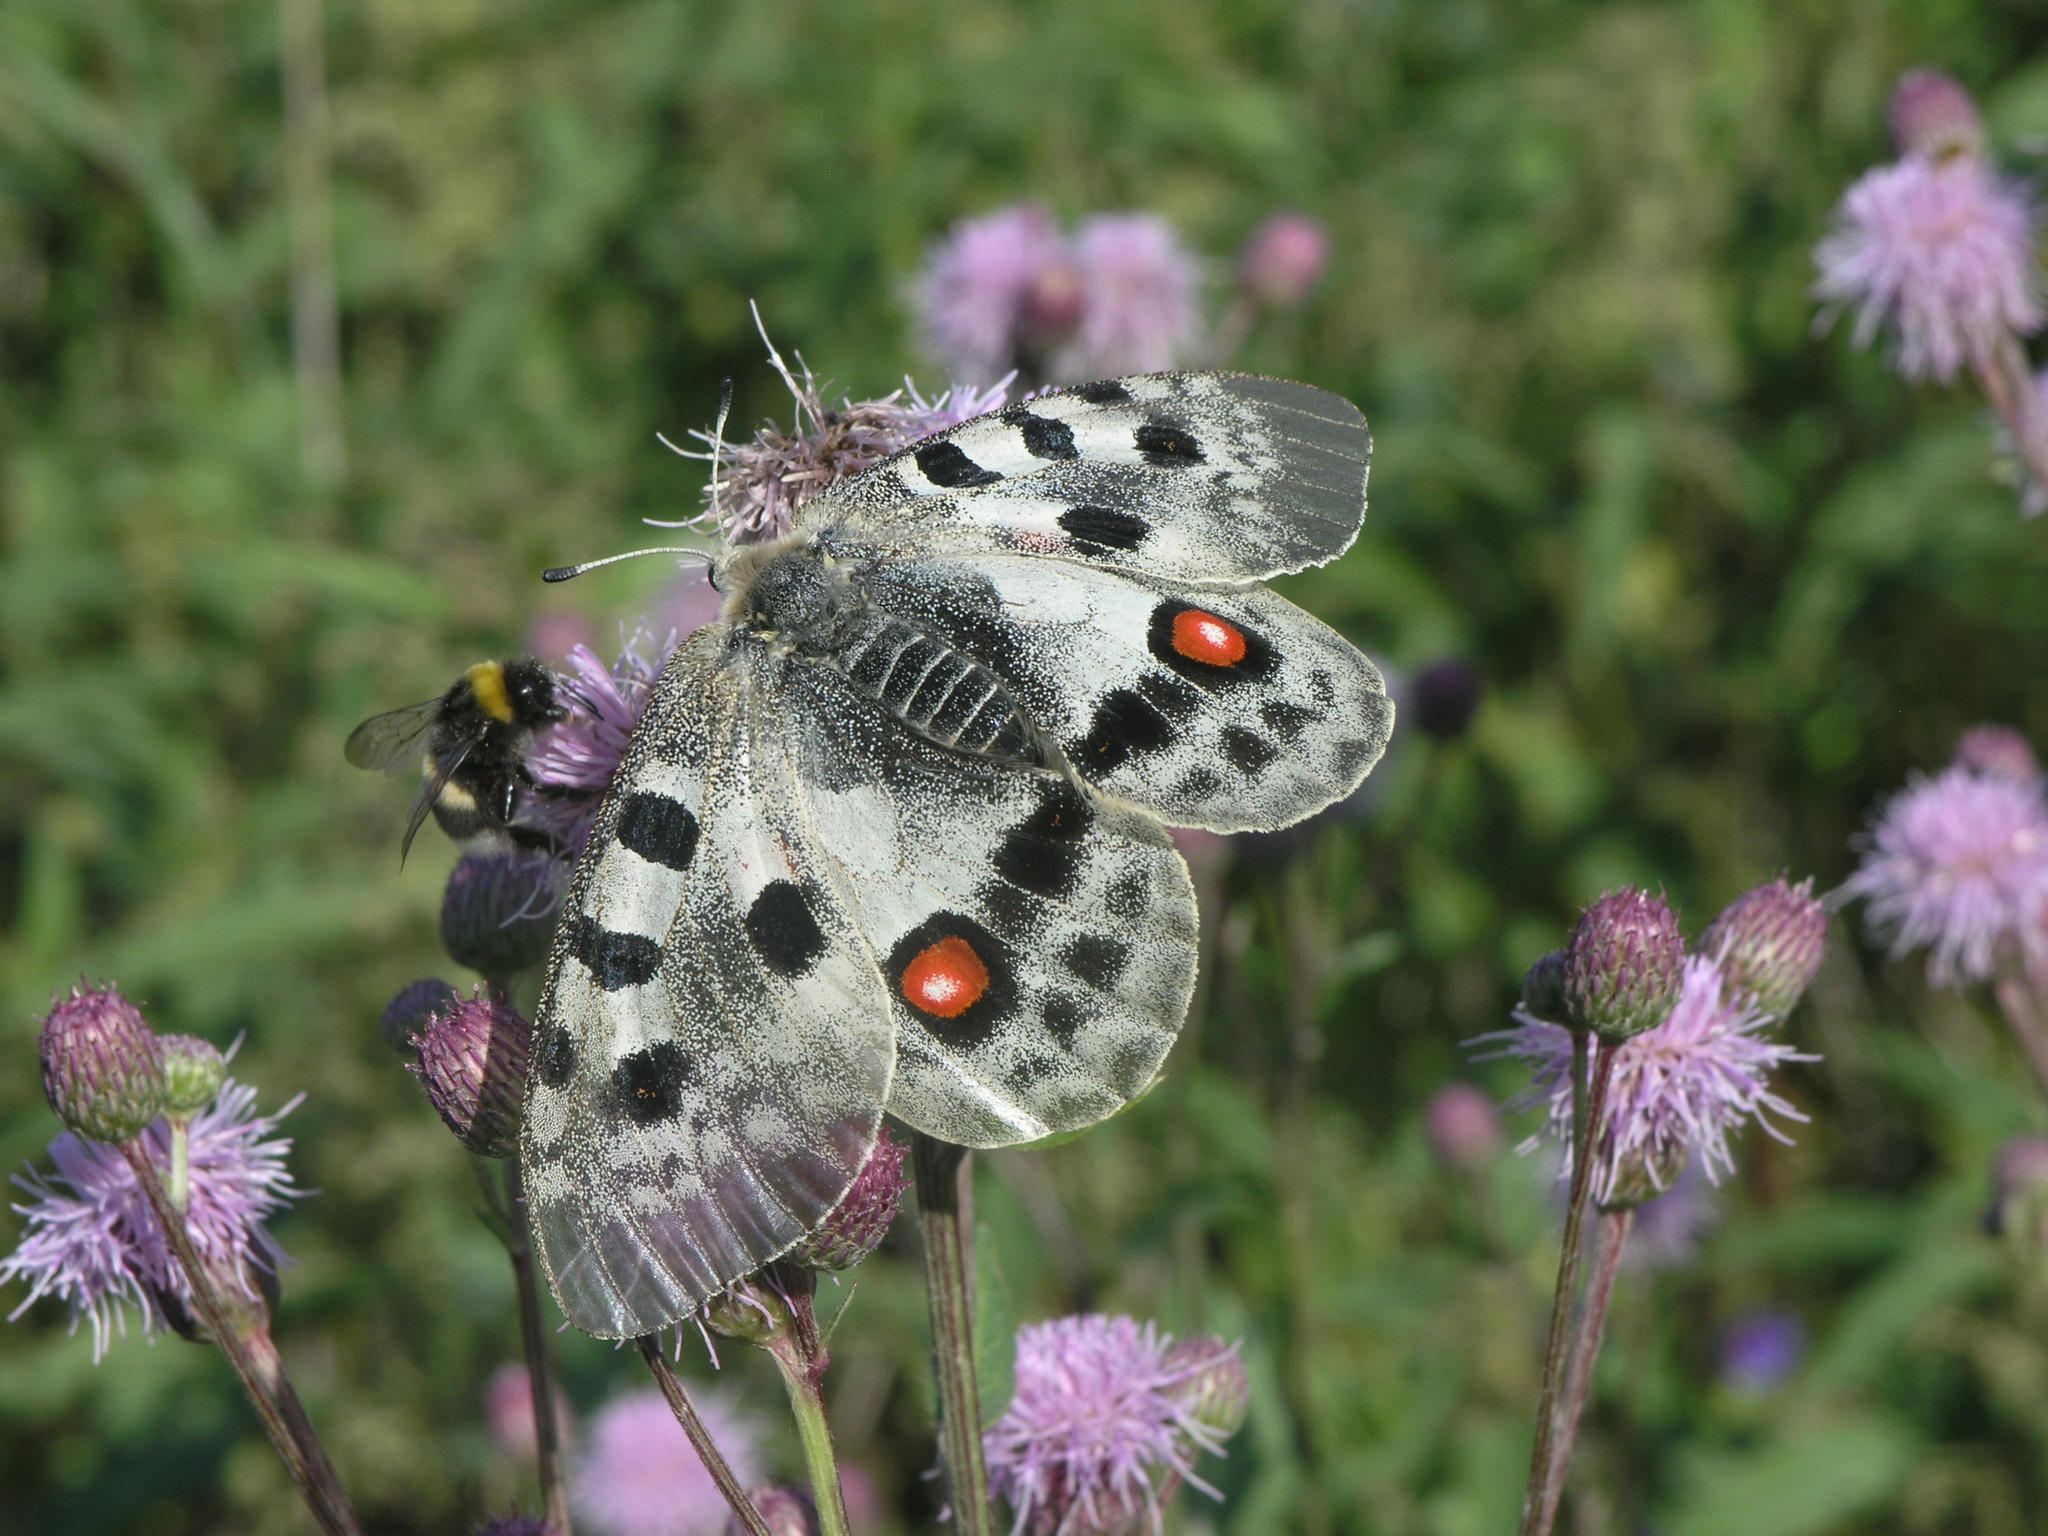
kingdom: Animalia
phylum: Arthropoda
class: Insecta
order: Lepidoptera
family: Papilionidae
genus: Parnassius
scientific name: Parnassius apollo
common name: Apollo
